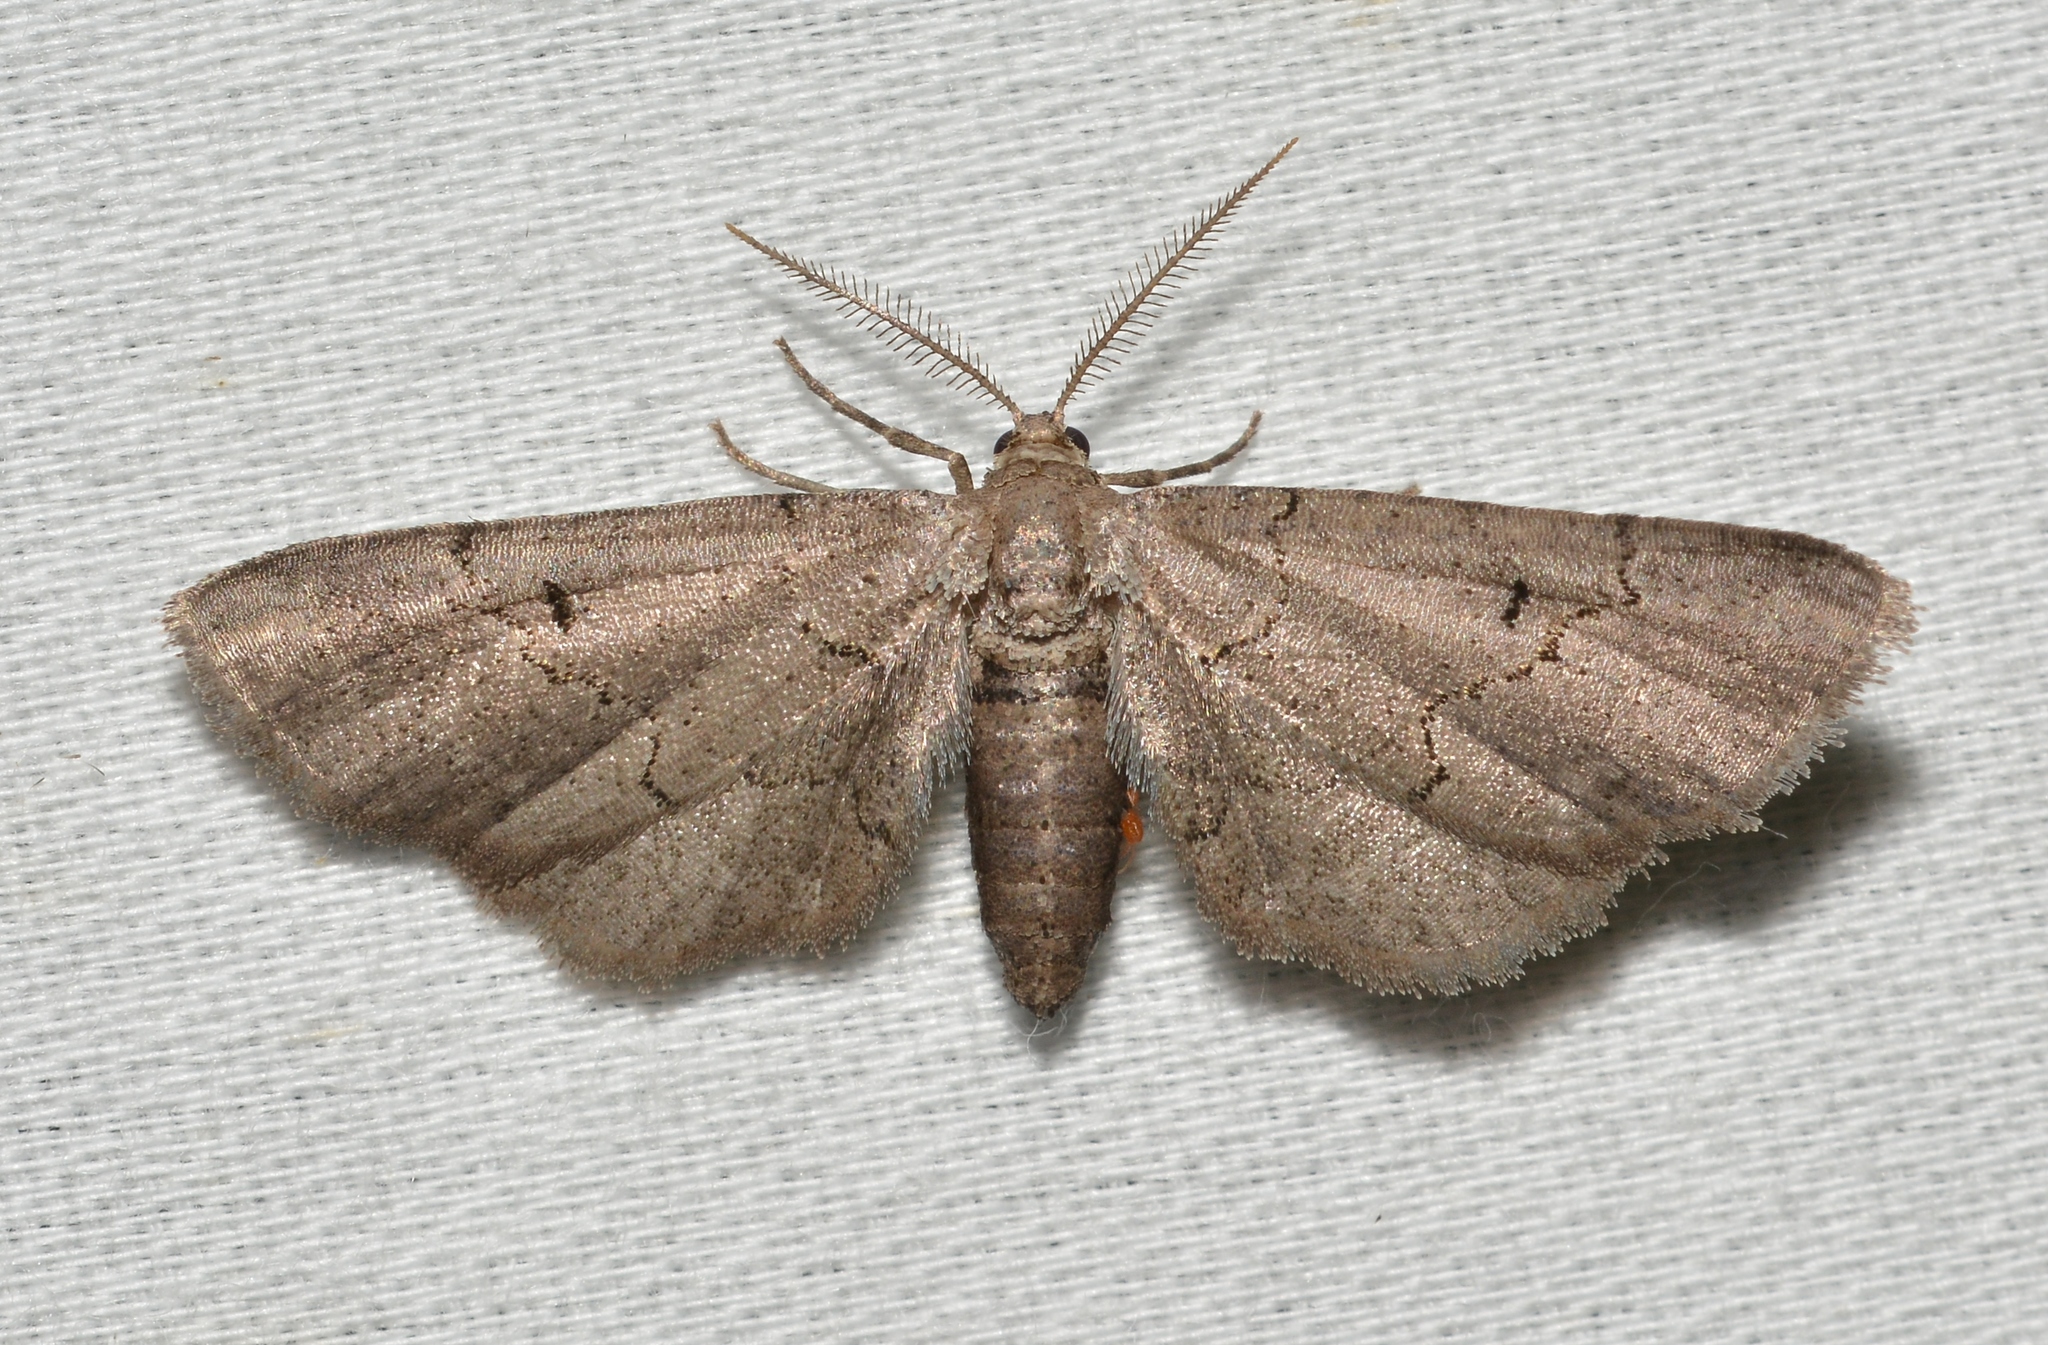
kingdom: Animalia
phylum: Arthropoda
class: Insecta
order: Lepidoptera
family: Geometridae
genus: Exelis
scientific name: Exelis pyrolaria
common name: Fine lined gray
